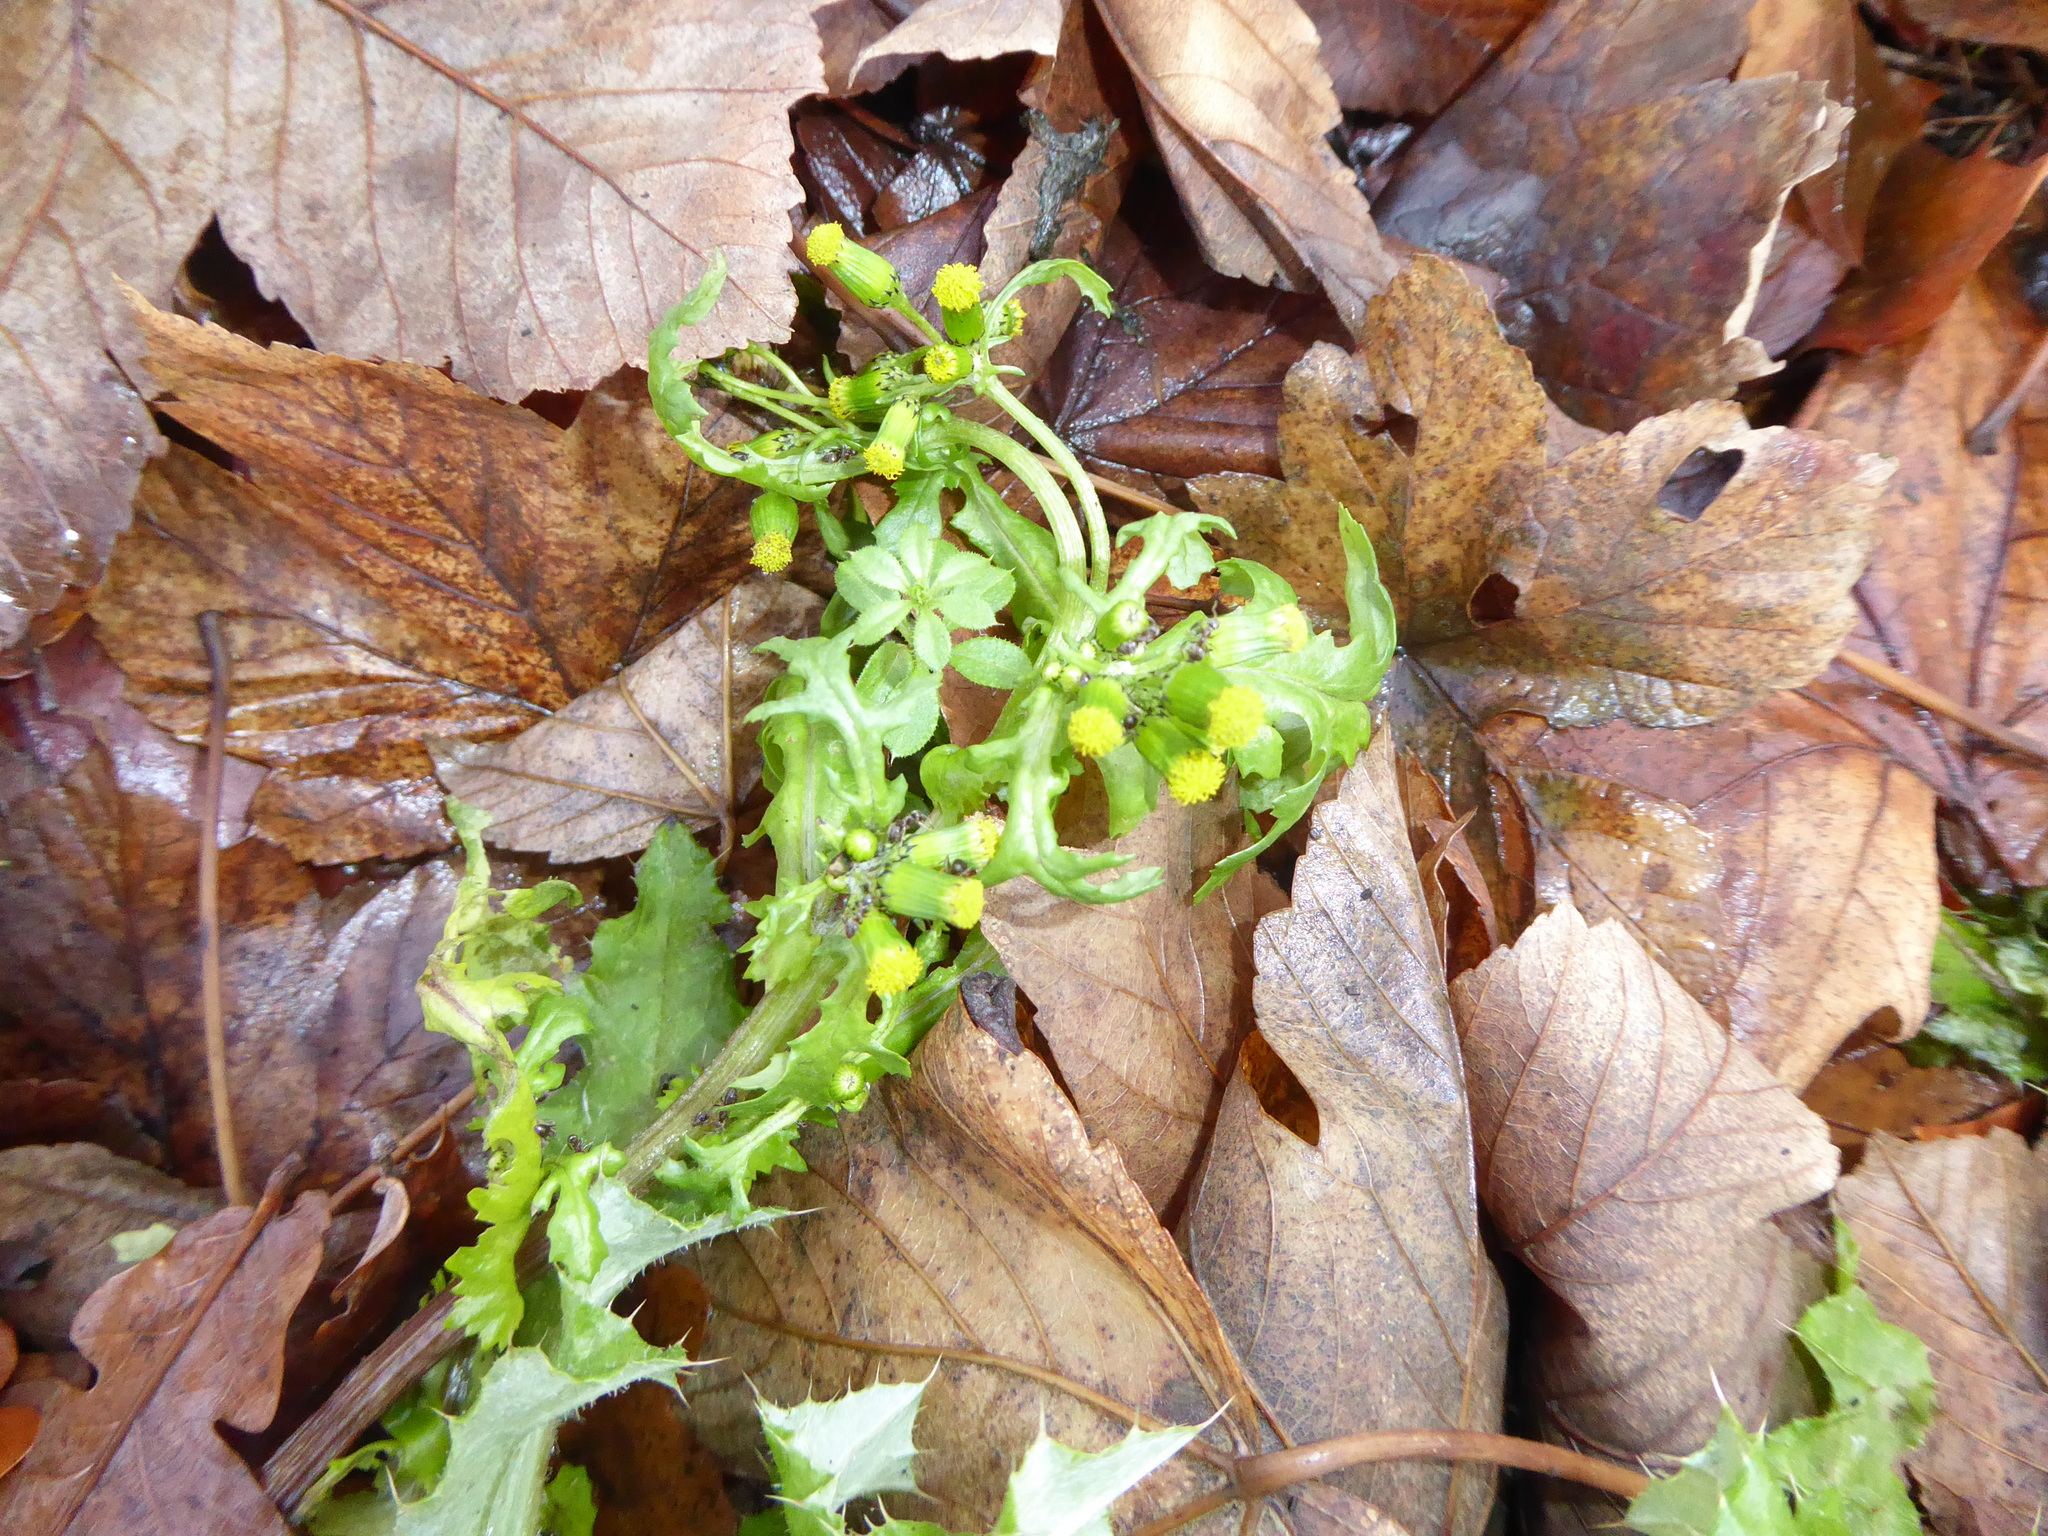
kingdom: Plantae
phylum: Tracheophyta
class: Magnoliopsida
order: Asterales
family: Asteraceae
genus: Senecio
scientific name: Senecio vulgaris
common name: Old-man-in-the-spring
